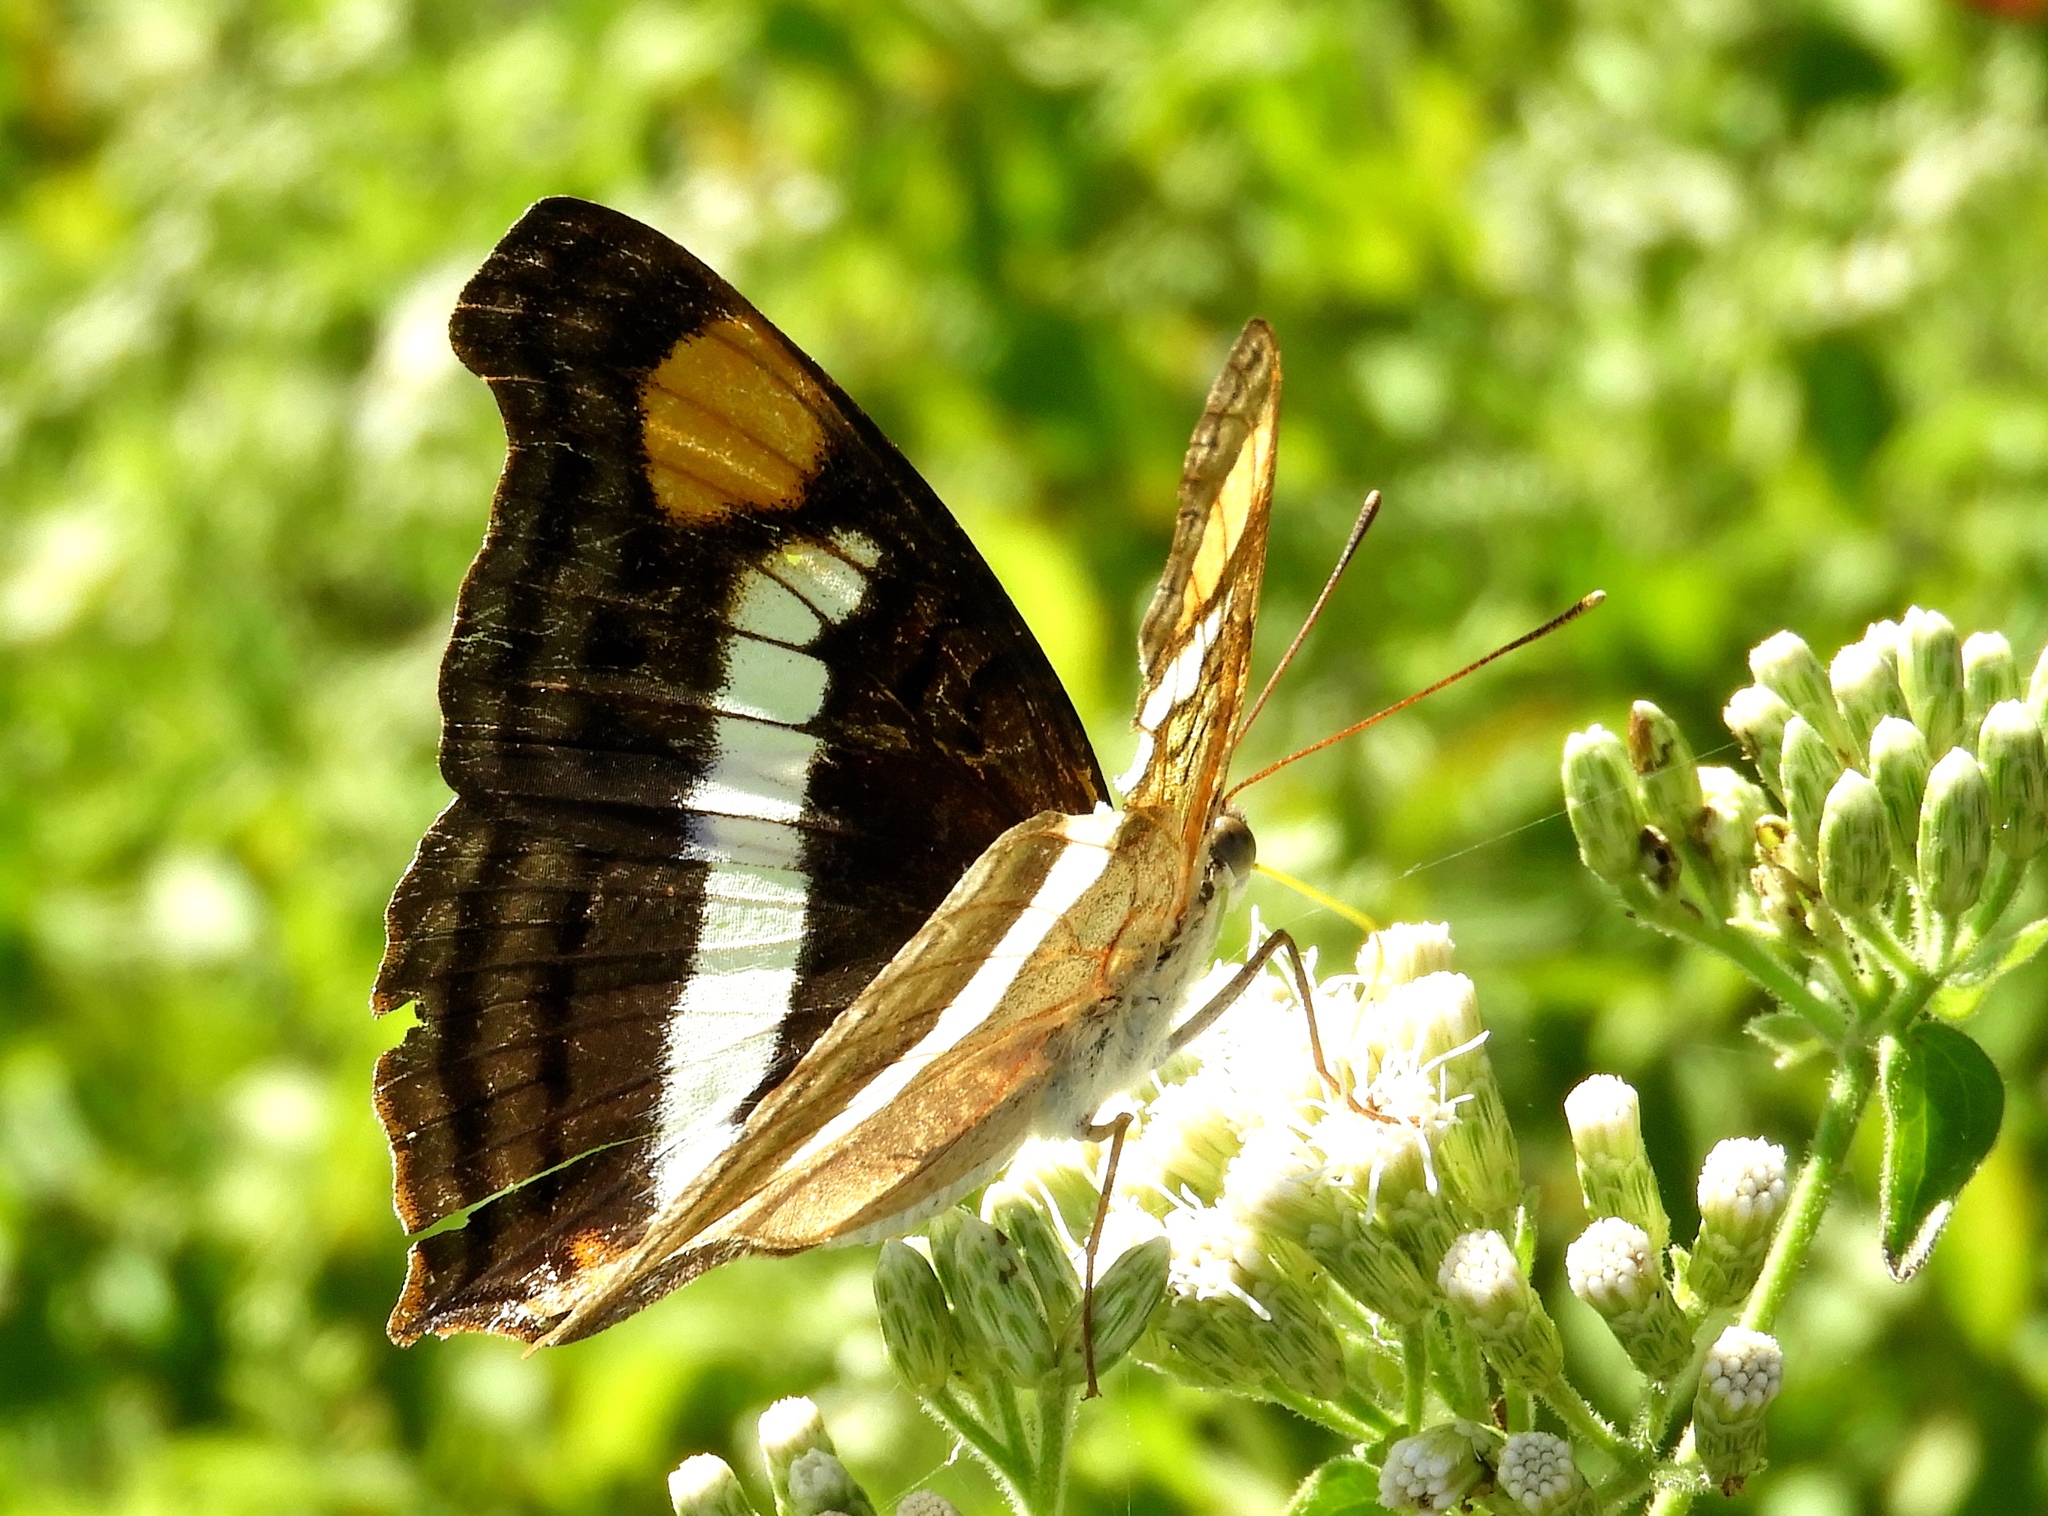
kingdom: Plantae
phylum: Tracheophyta
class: Magnoliopsida
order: Asterales
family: Asteraceae
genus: Chromolaena
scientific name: Chromolaena odorata
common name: Siamweed
